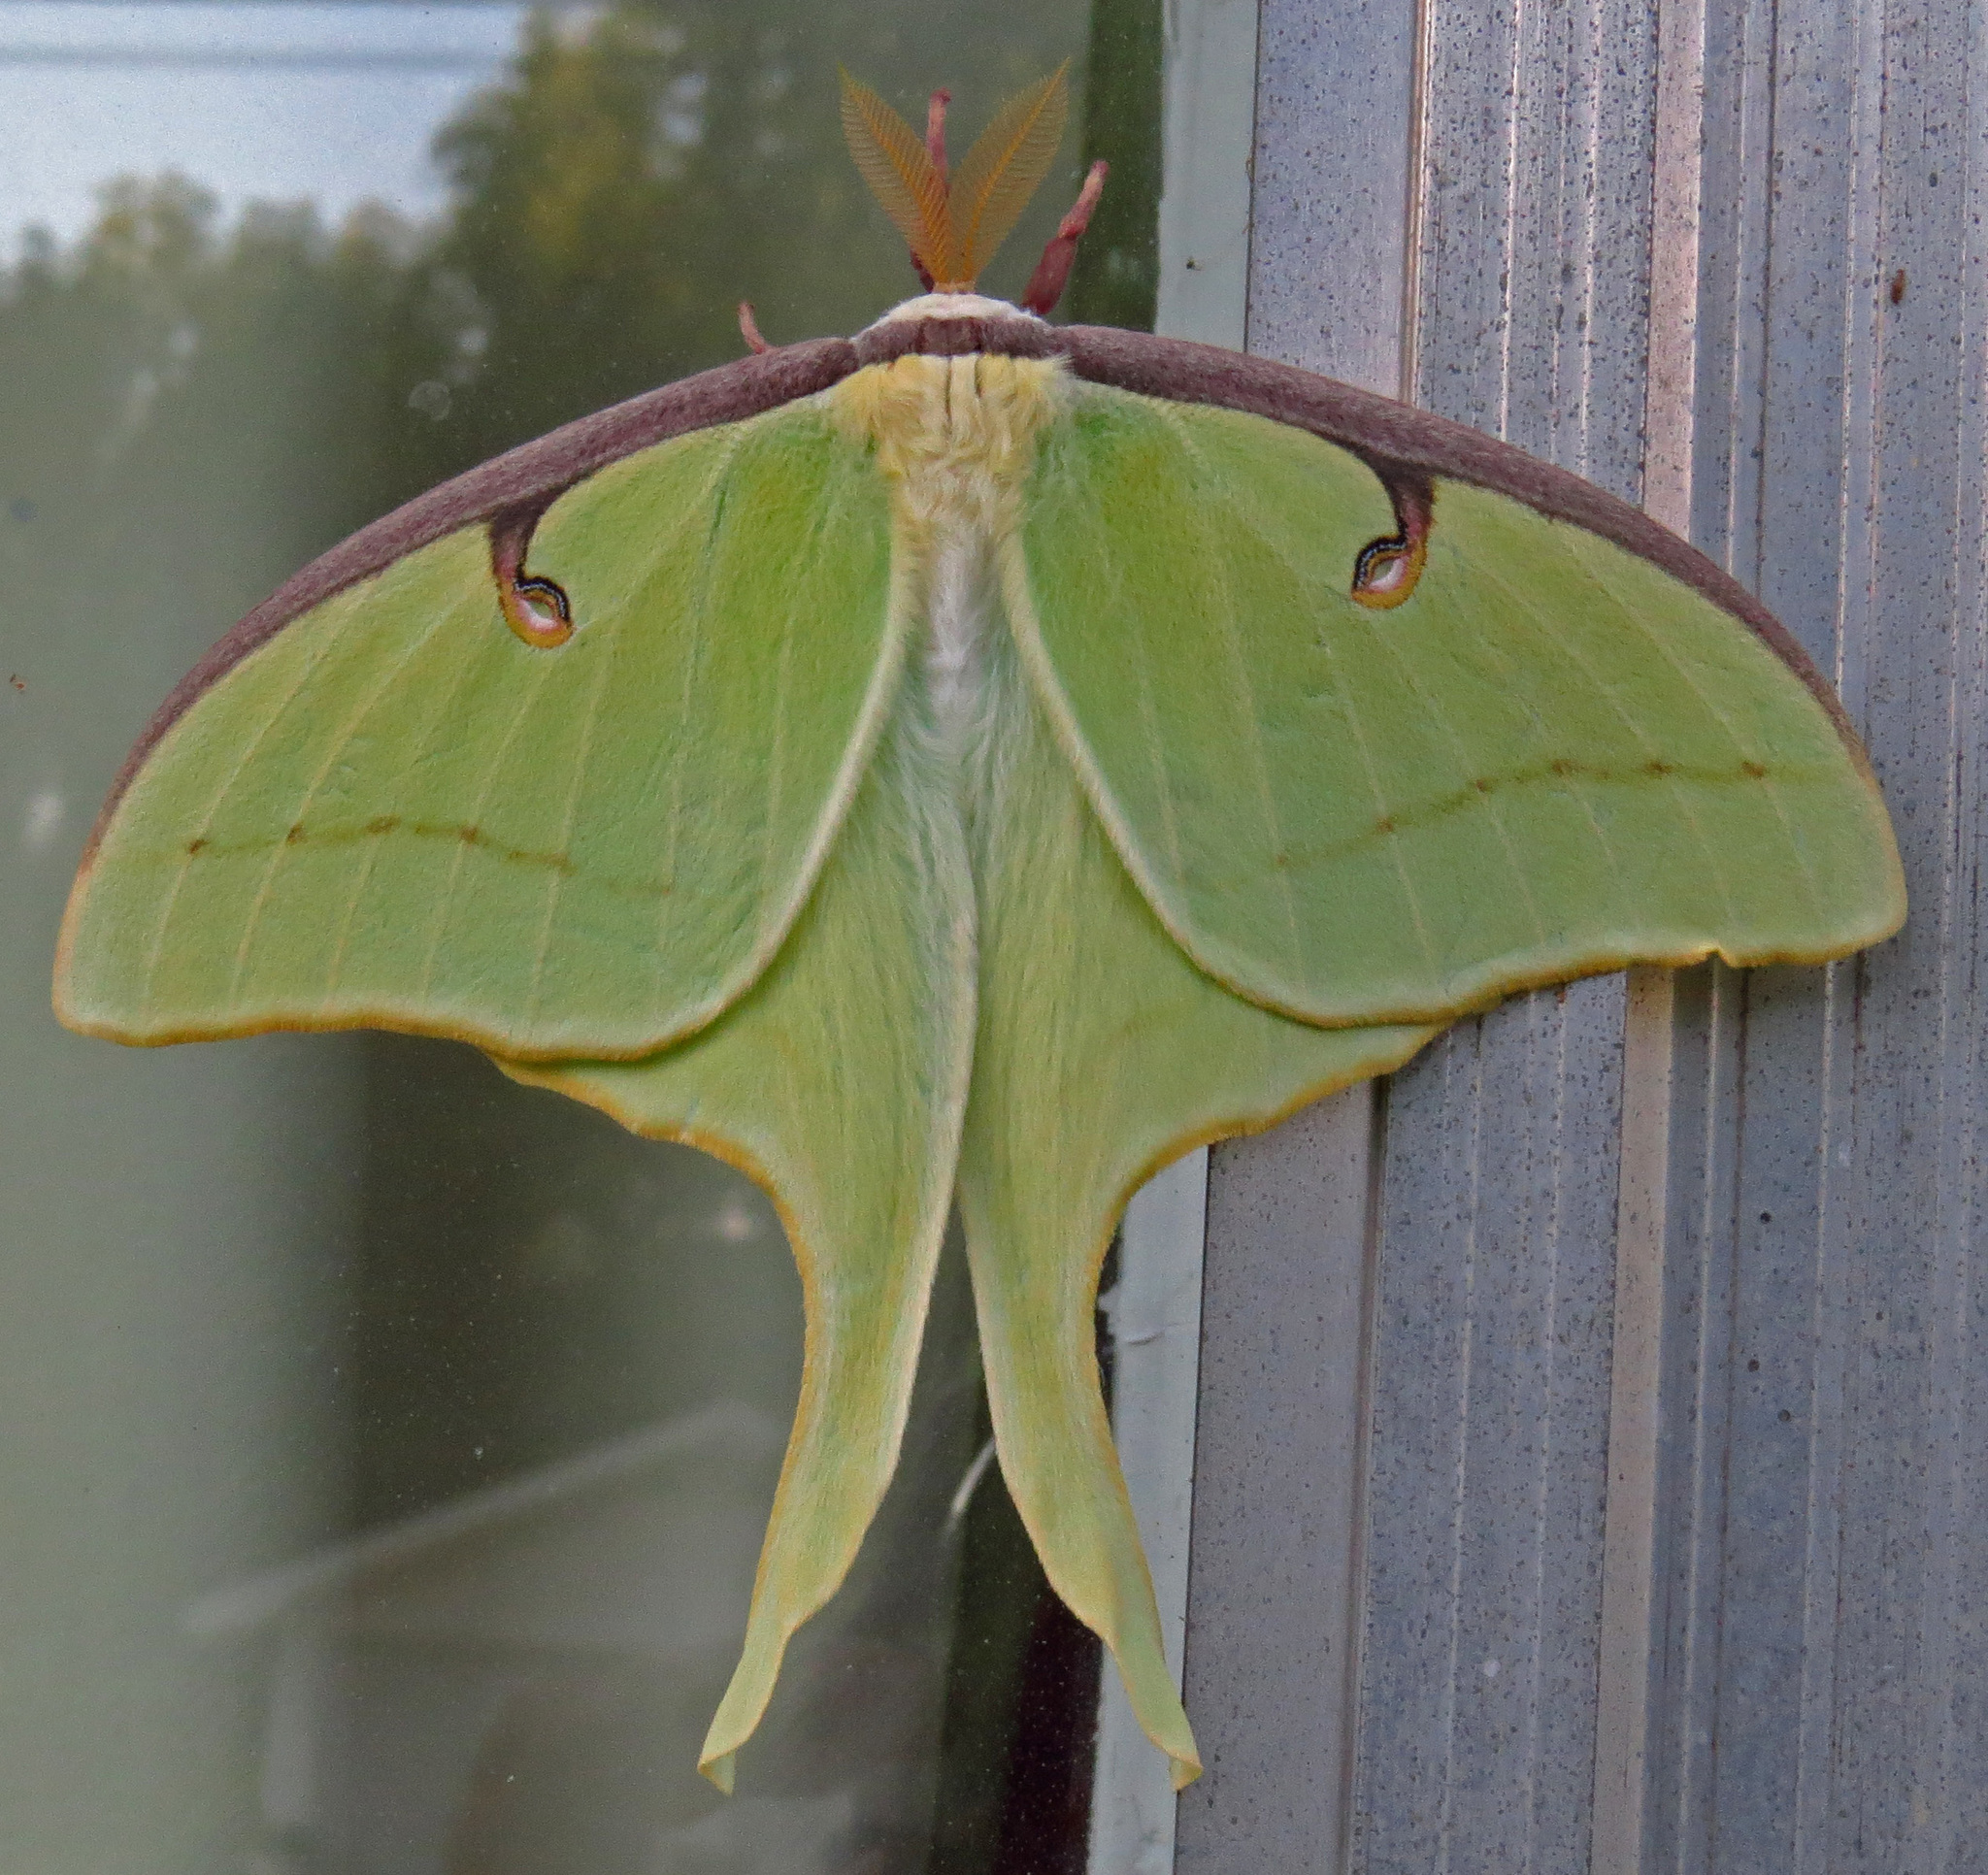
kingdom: Animalia
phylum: Arthropoda
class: Insecta
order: Lepidoptera
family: Saturniidae
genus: Actias
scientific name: Actias luna
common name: Luna moth
